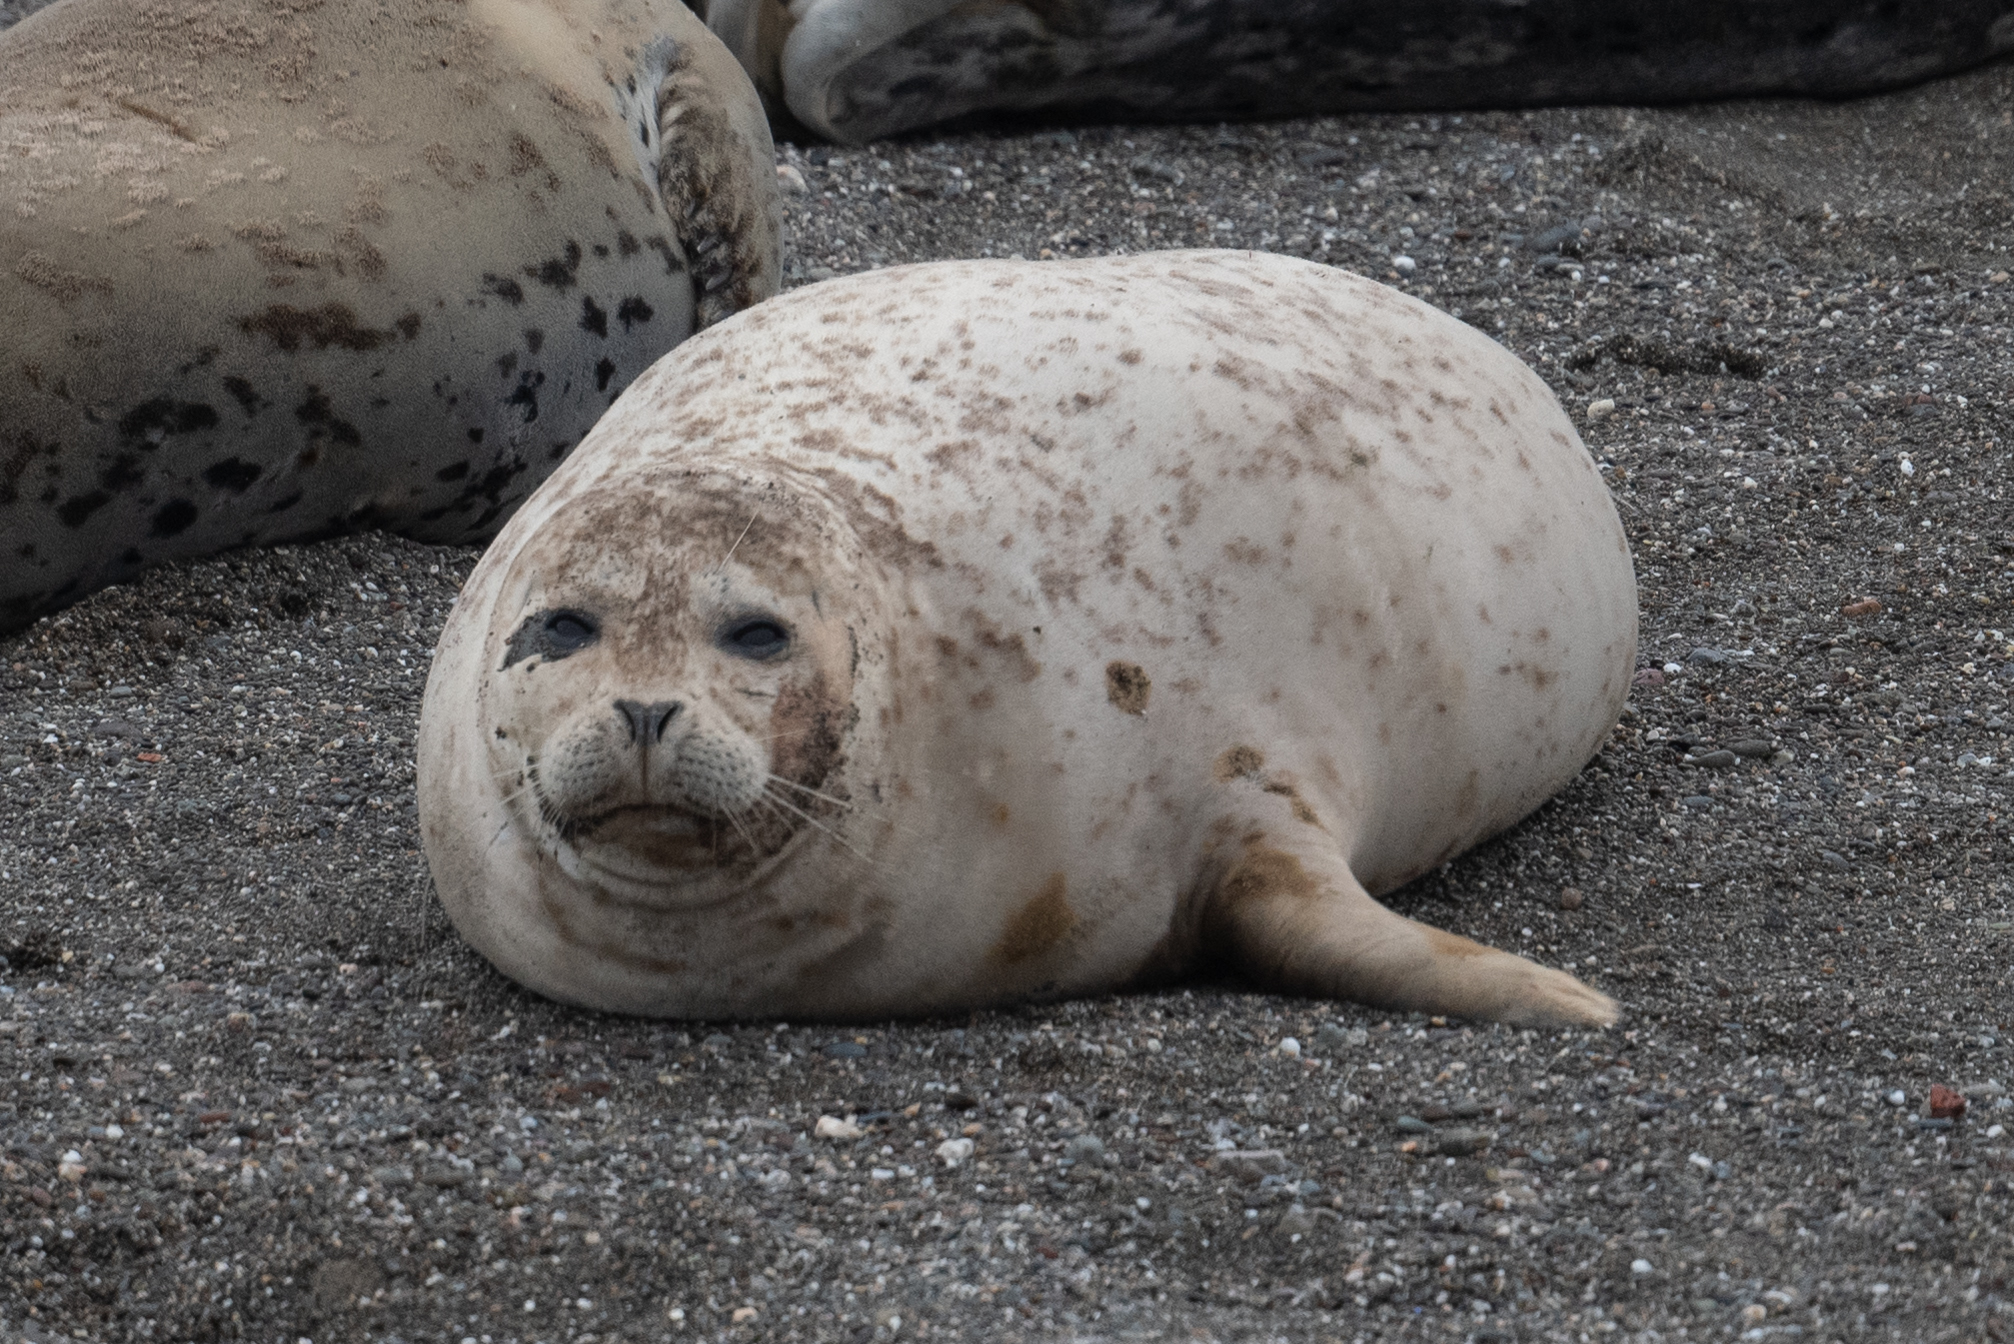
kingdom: Animalia
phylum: Chordata
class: Mammalia
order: Carnivora
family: Phocidae
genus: Phoca
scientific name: Phoca vitulina
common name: Harbor seal
